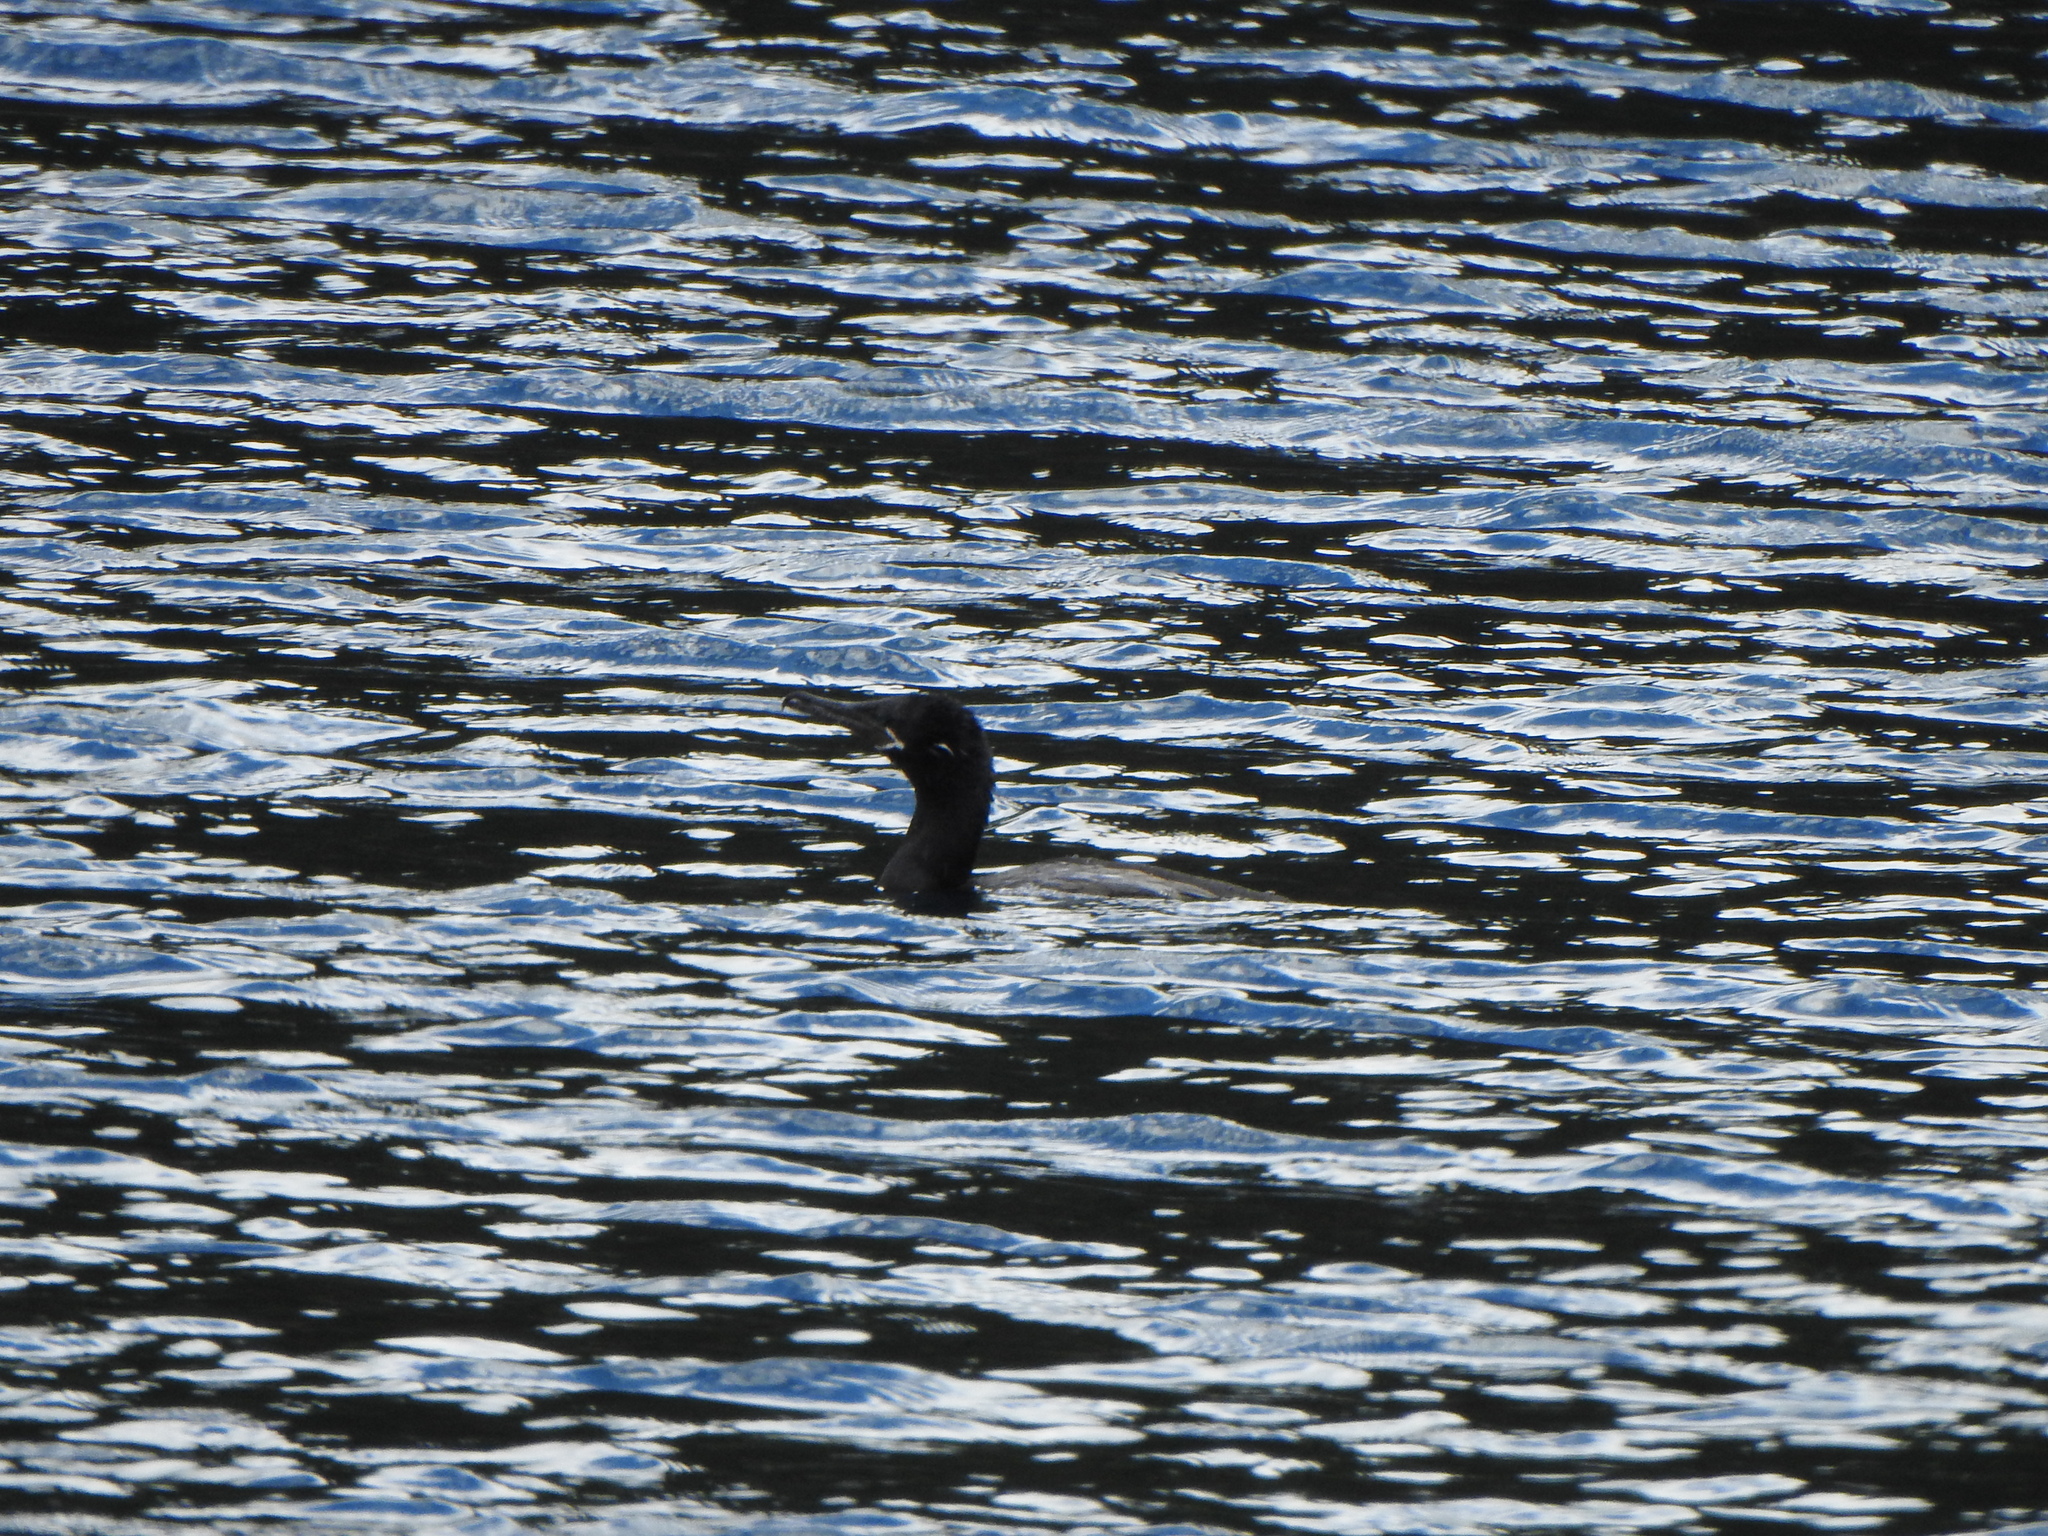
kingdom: Animalia
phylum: Chordata
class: Aves
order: Suliformes
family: Phalacrocoracidae
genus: Phalacrocorax
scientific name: Phalacrocorax brasilianus
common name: Neotropic cormorant
